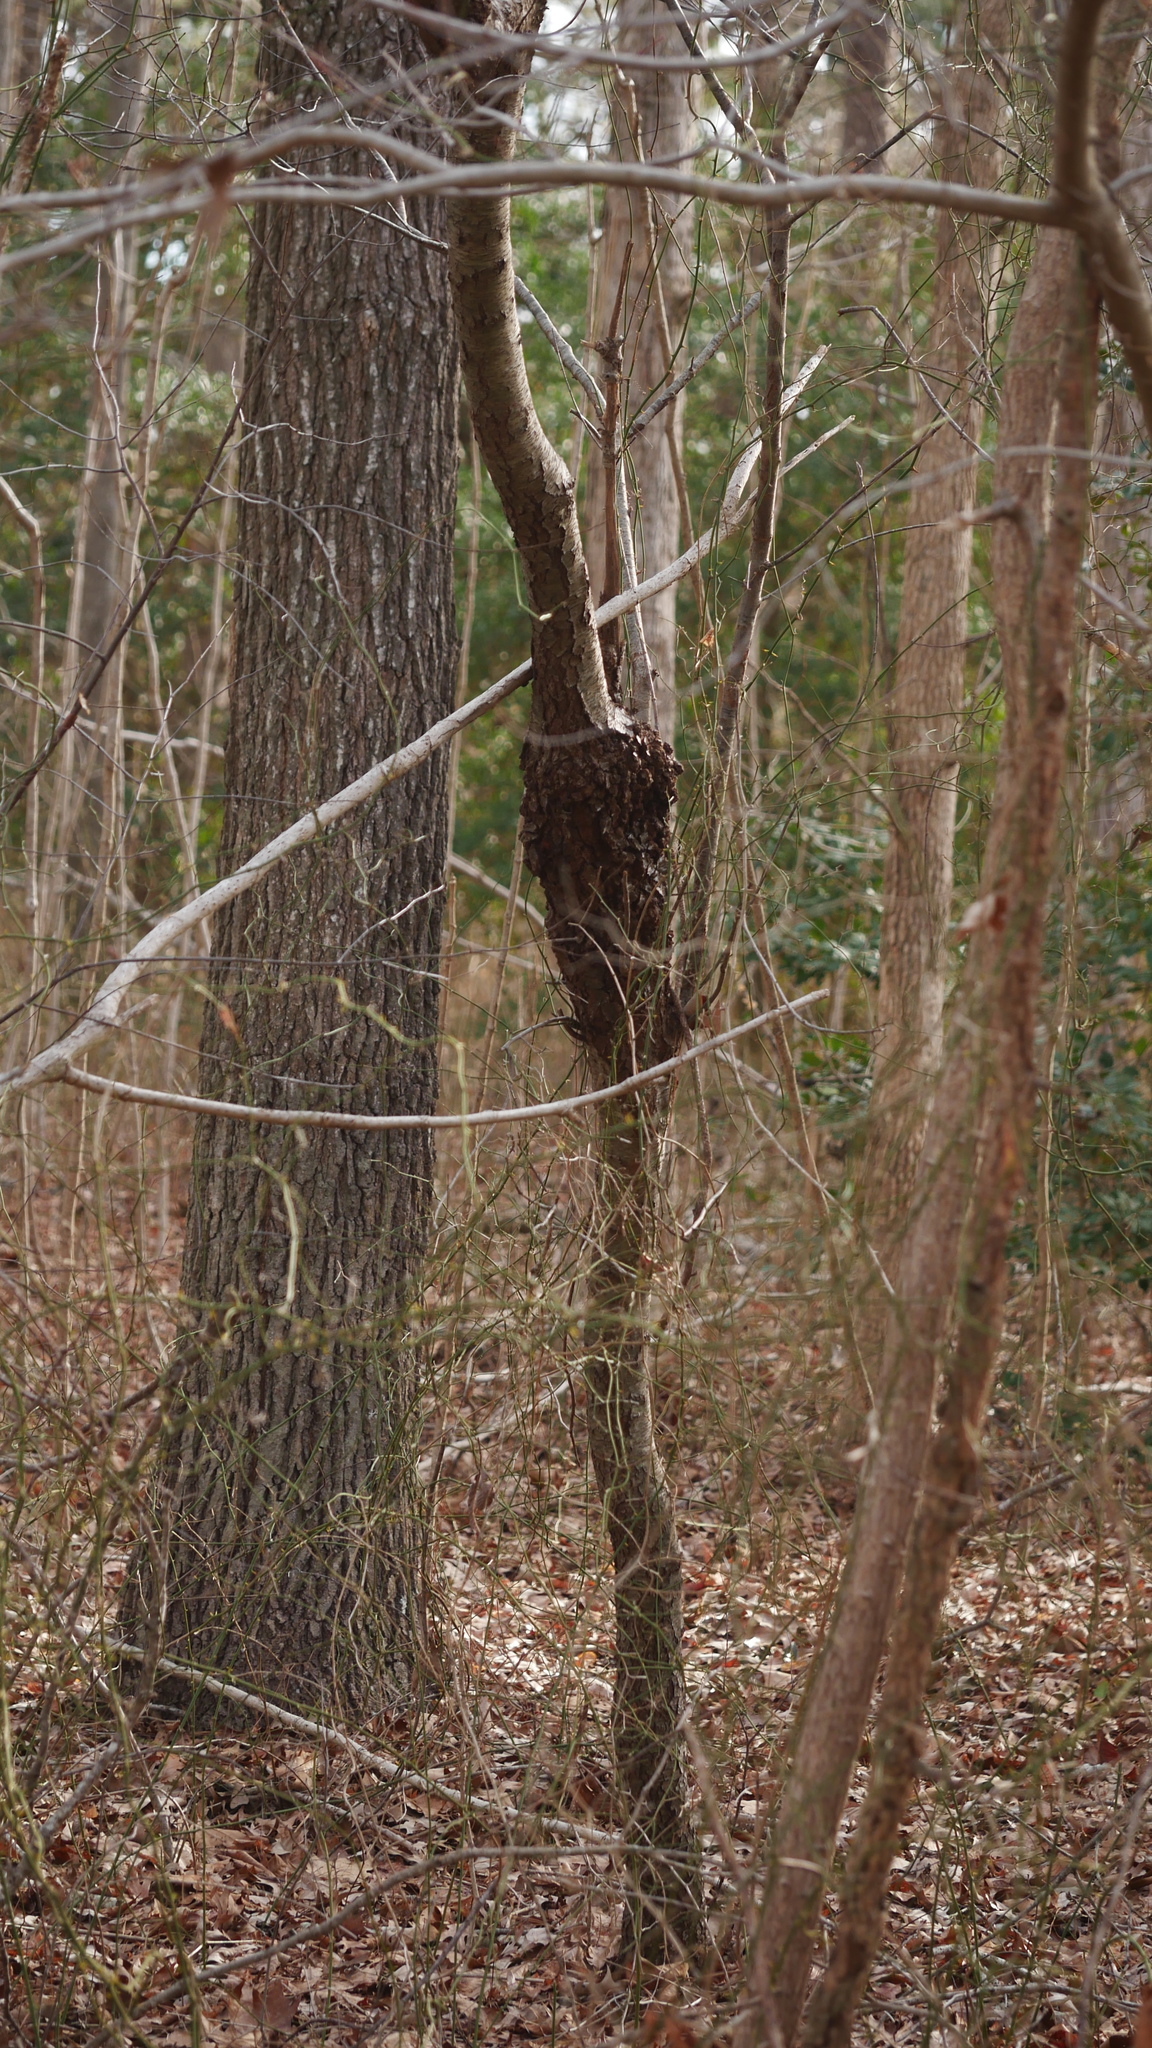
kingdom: Bacteria
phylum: Proteobacteria
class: Alphaproteobacteria
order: Rhizobiales
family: Rhizobiaceae
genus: Rhizobium
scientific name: Rhizobium Agrobacterium radiobacter
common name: Bacterial crown gall
